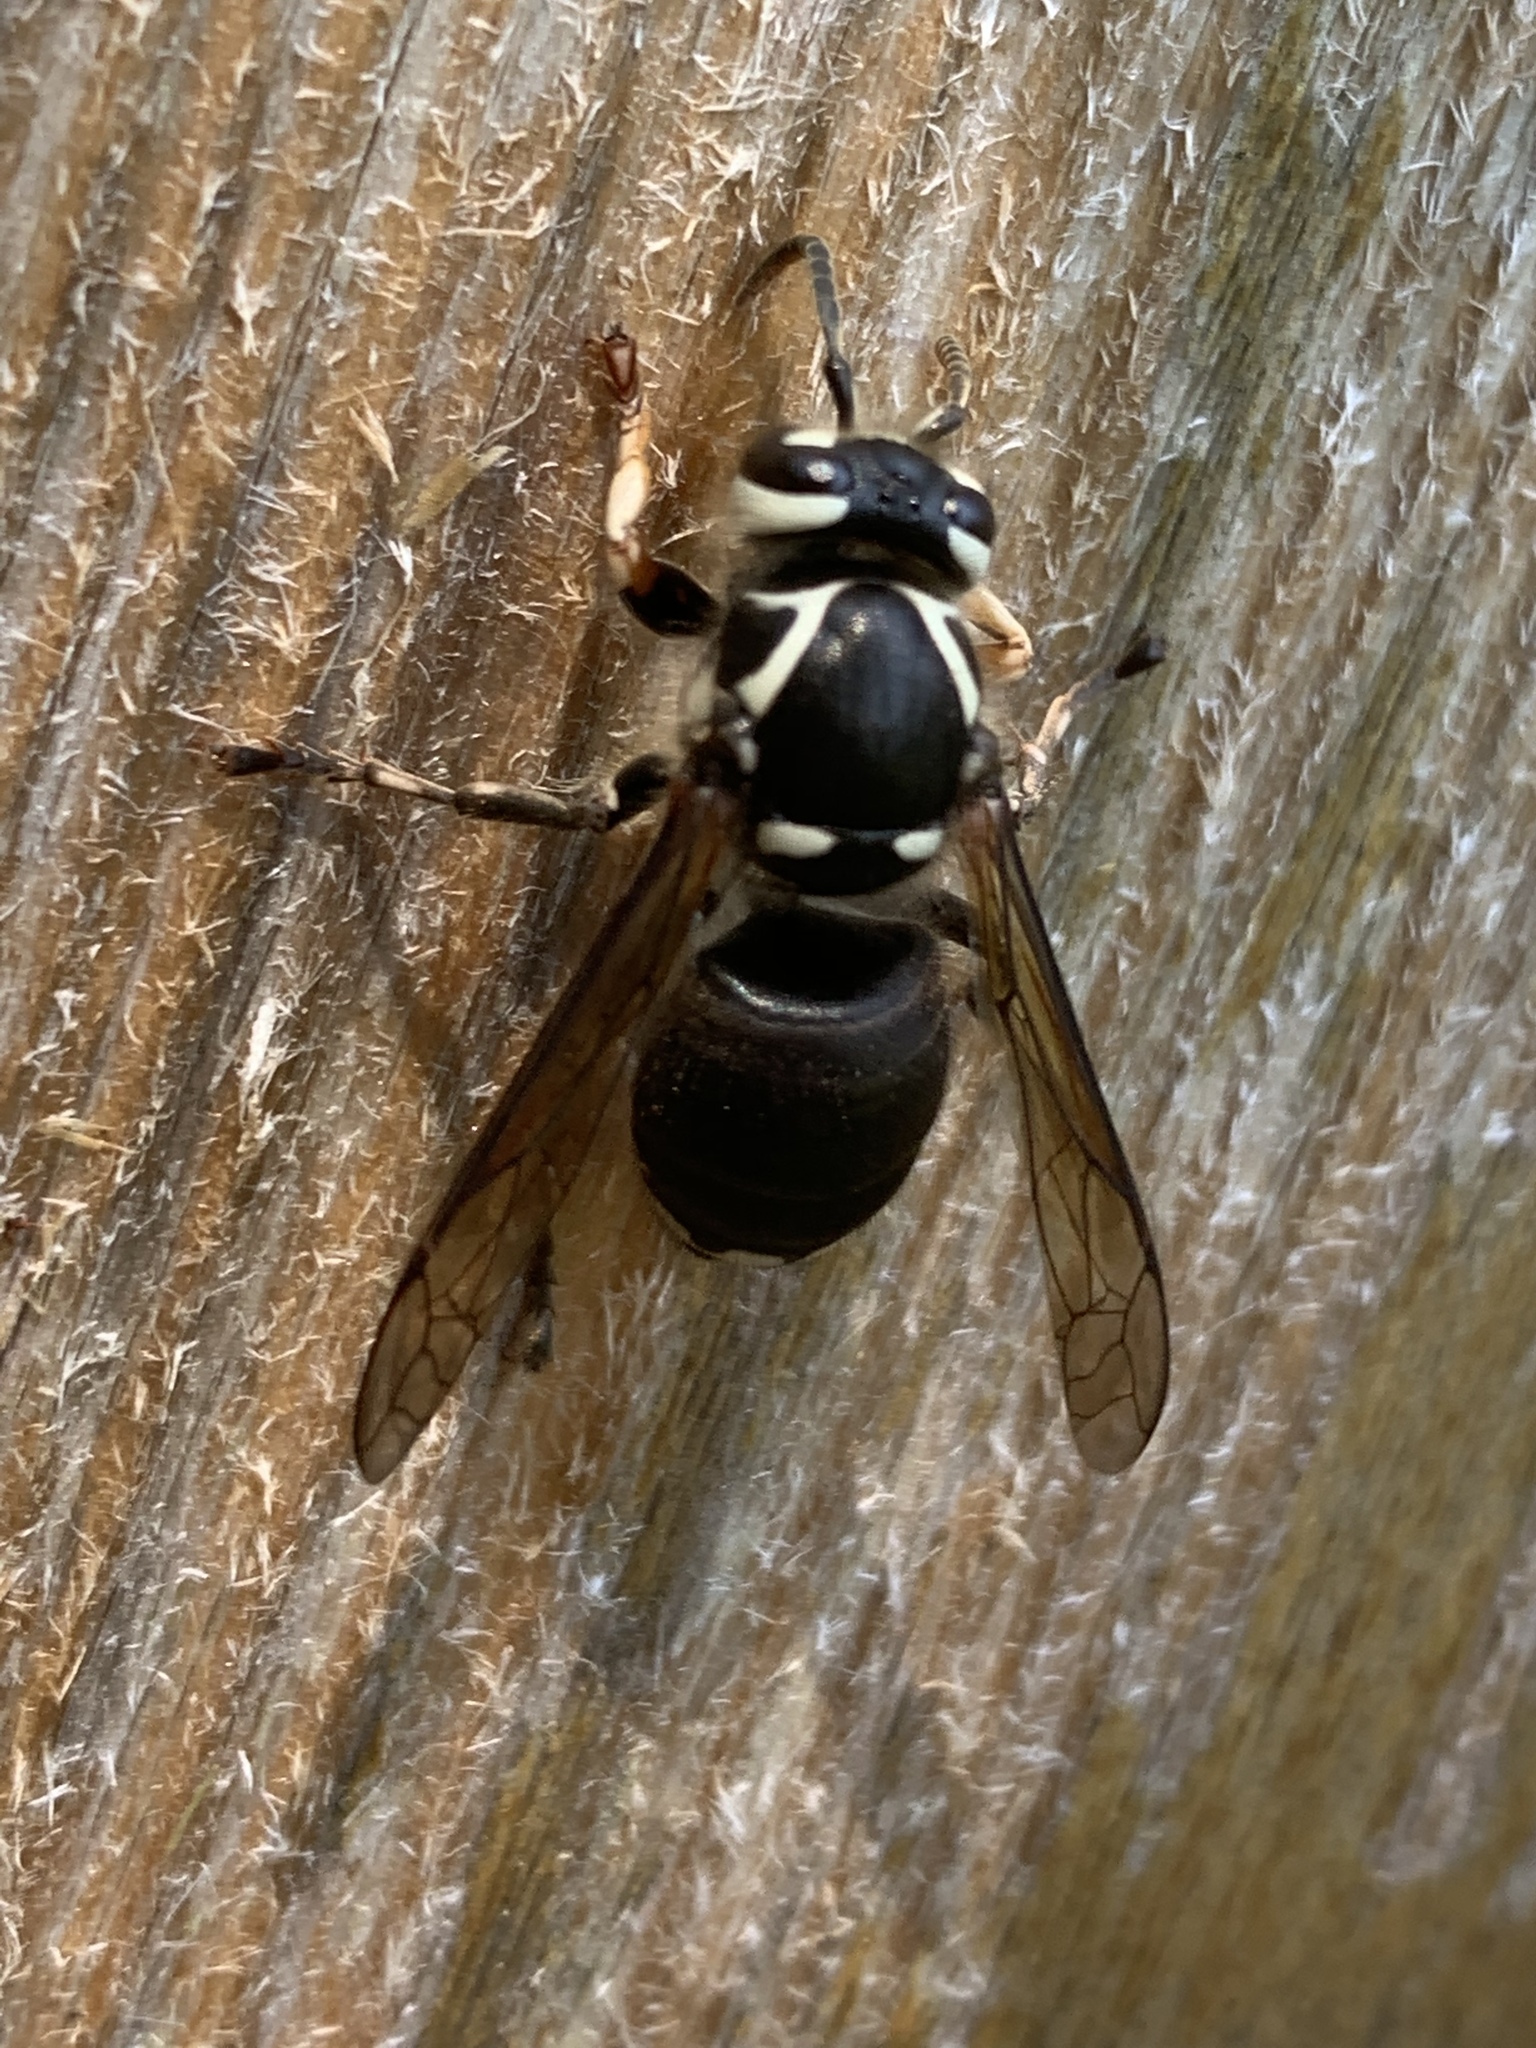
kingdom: Animalia
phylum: Arthropoda
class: Insecta
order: Hymenoptera
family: Vespidae
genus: Dolichovespula
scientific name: Dolichovespula maculata
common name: Bald-faced hornet
